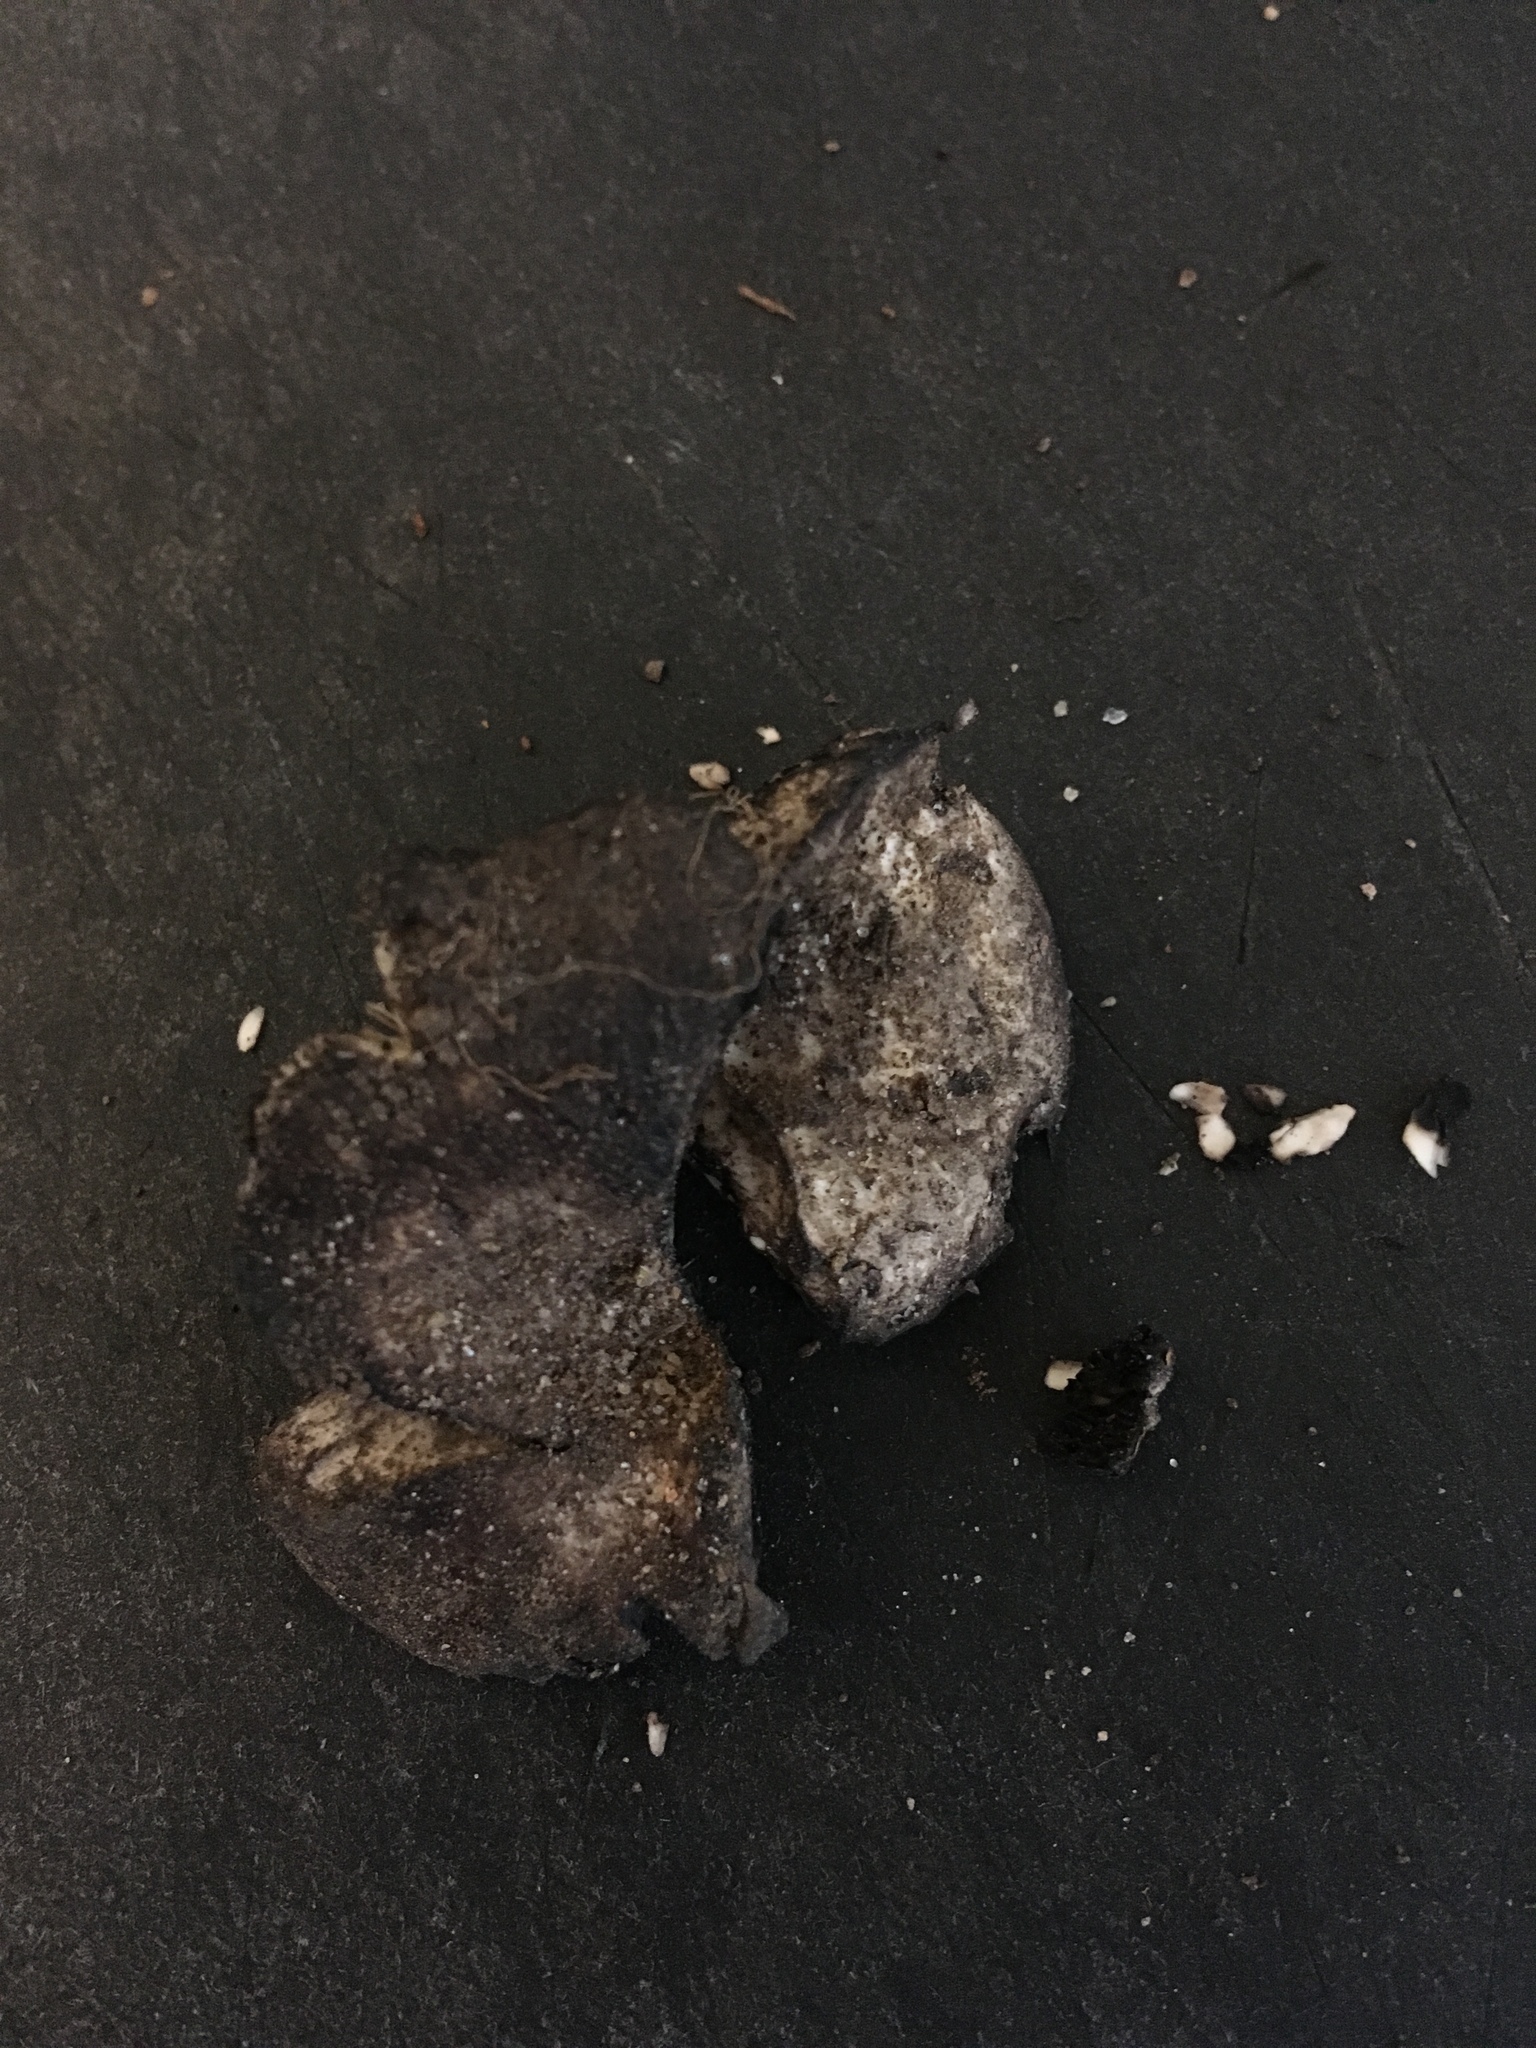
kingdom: Fungi
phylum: Basidiomycota
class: Agaricomycetes
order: Russulales
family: Russulaceae
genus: Russula
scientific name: Russula albonigra
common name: Menthol brittlegill
